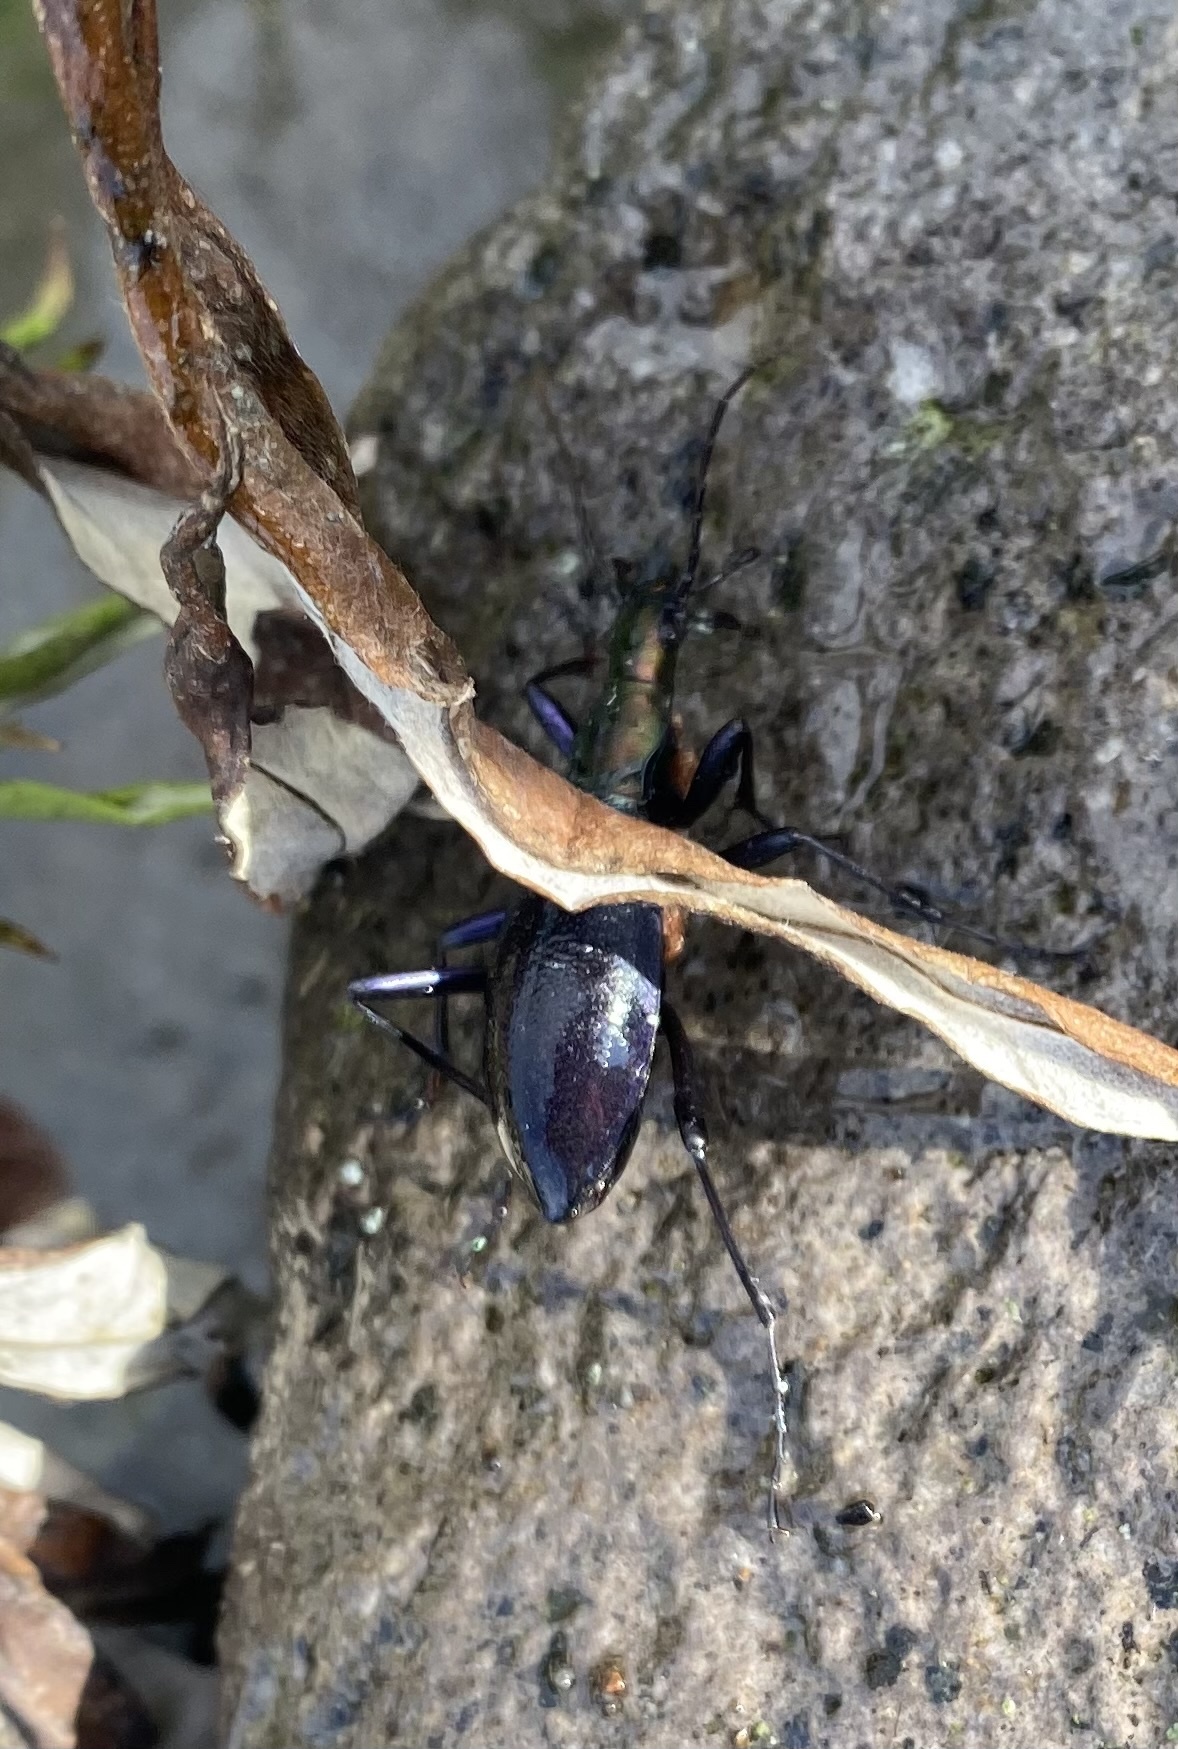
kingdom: Animalia
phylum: Arthropoda
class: Insecta
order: Coleoptera
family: Carabidae
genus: Carabus
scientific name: Carabus blaptoides
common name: Snail-eating beetle
